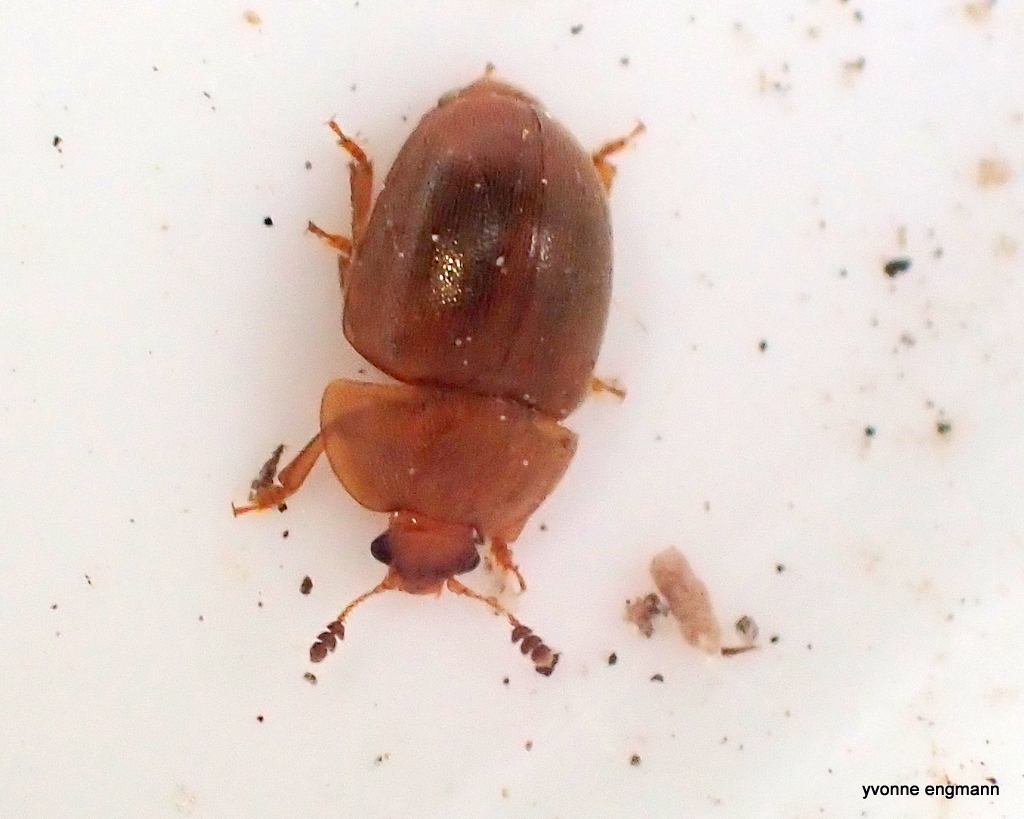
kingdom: Animalia
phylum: Arthropoda
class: Insecta
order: Coleoptera
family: Nitidulidae
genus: Cychramus
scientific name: Cychramus luteus
